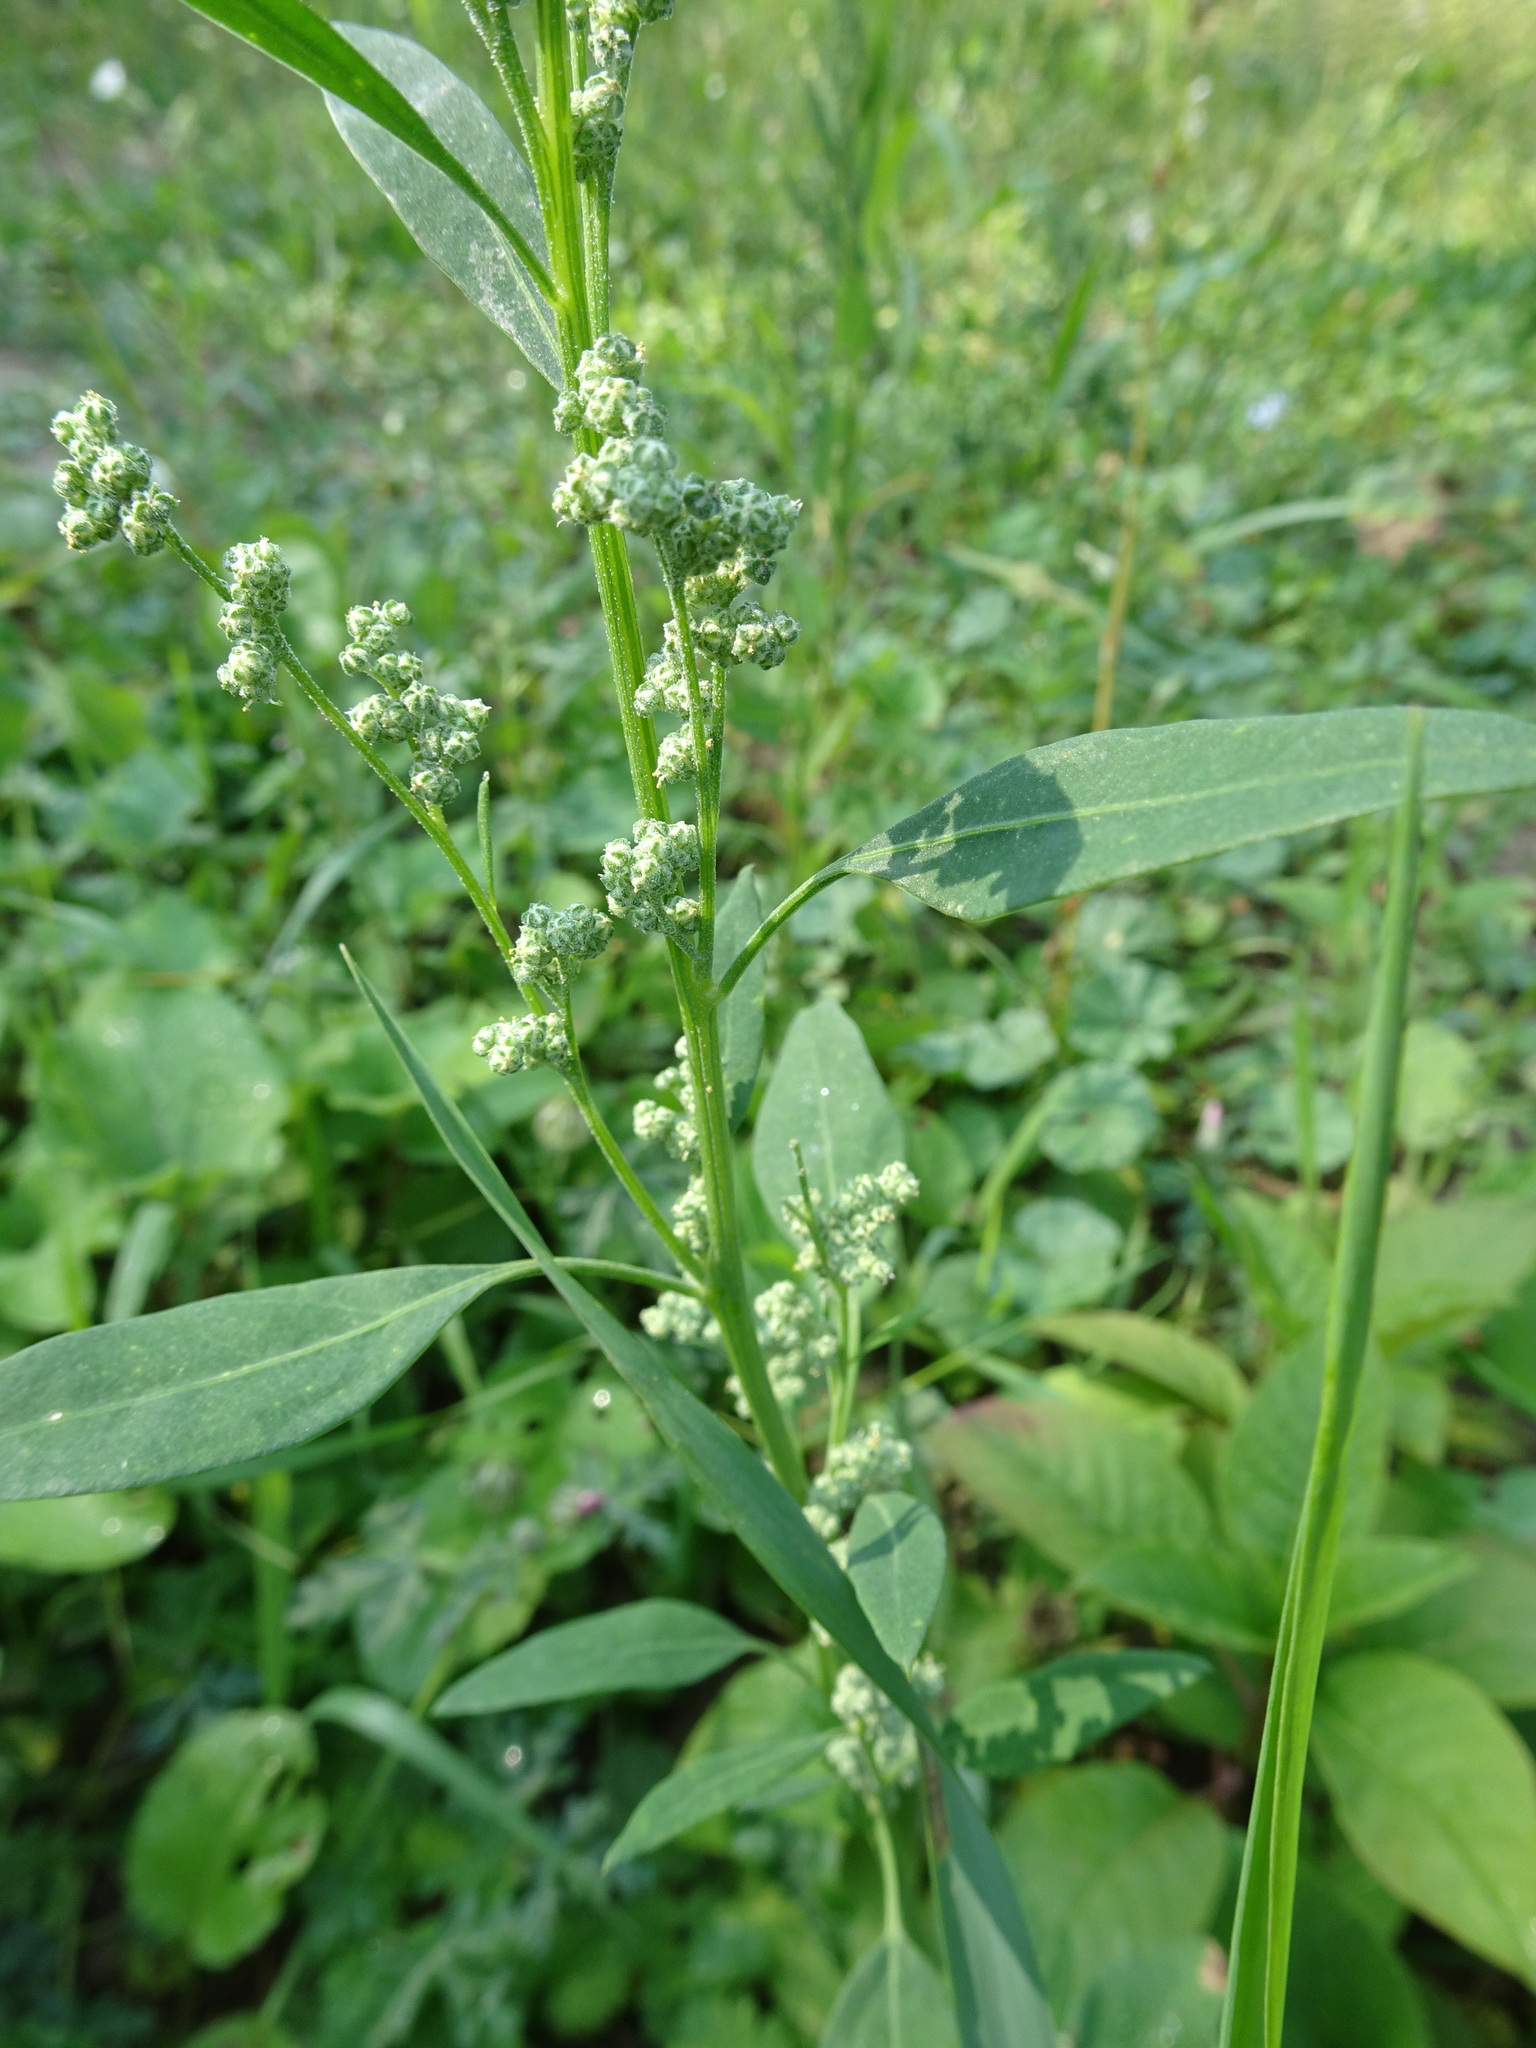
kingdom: Plantae
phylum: Tracheophyta
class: Magnoliopsida
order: Caryophyllales
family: Amaranthaceae
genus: Chenopodium
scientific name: Chenopodium album
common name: Fat-hen
